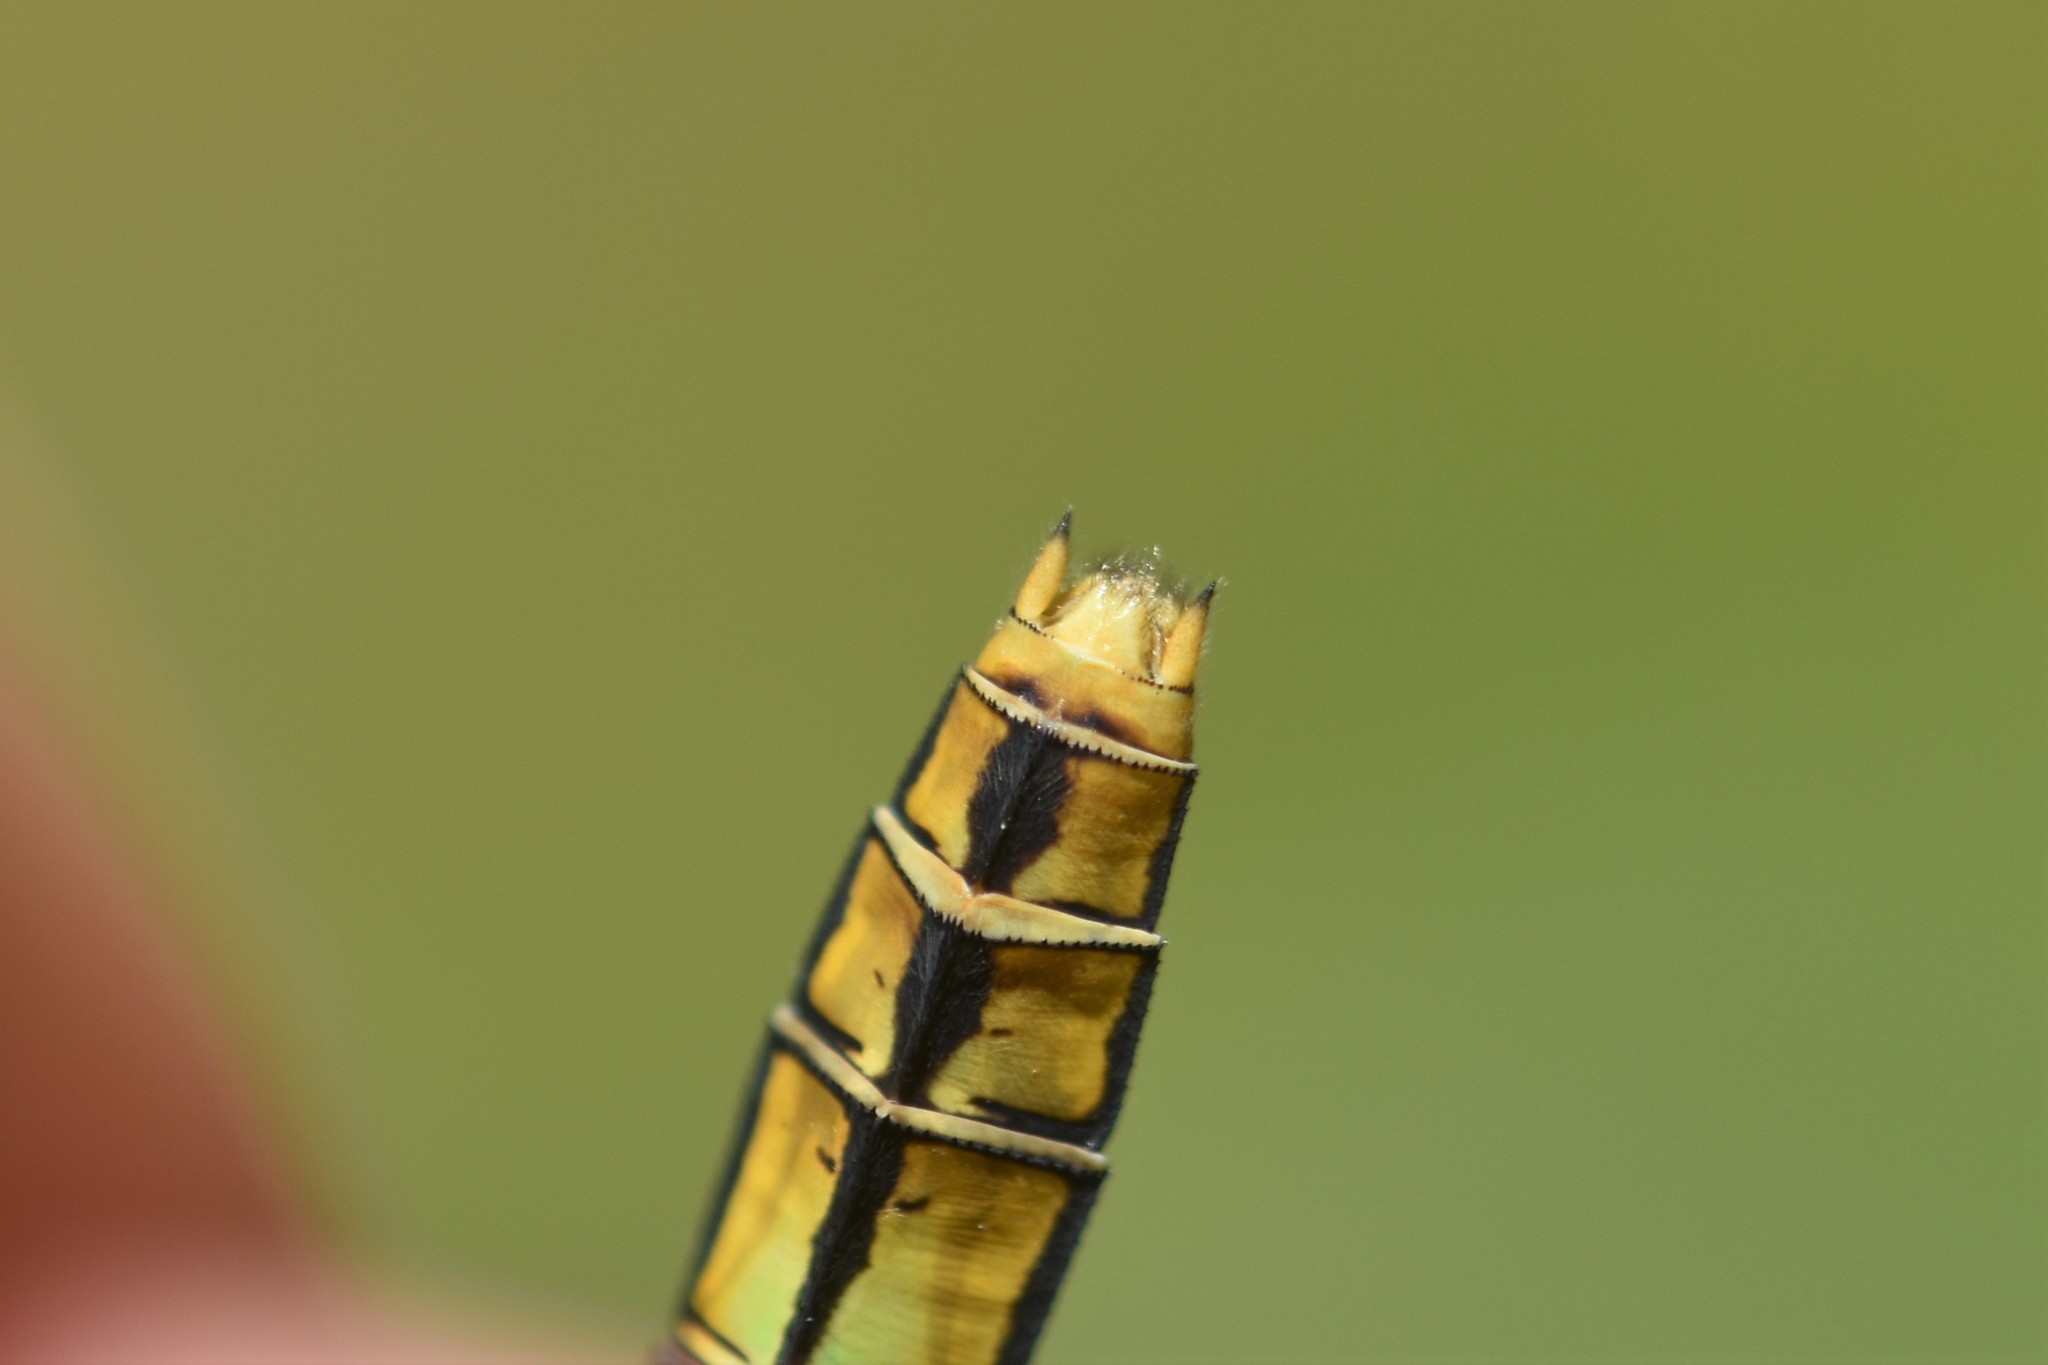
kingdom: Animalia
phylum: Arthropoda
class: Insecta
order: Odonata
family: Libellulidae
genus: Erythemis
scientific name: Erythemis collocata
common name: Western pondhawk
